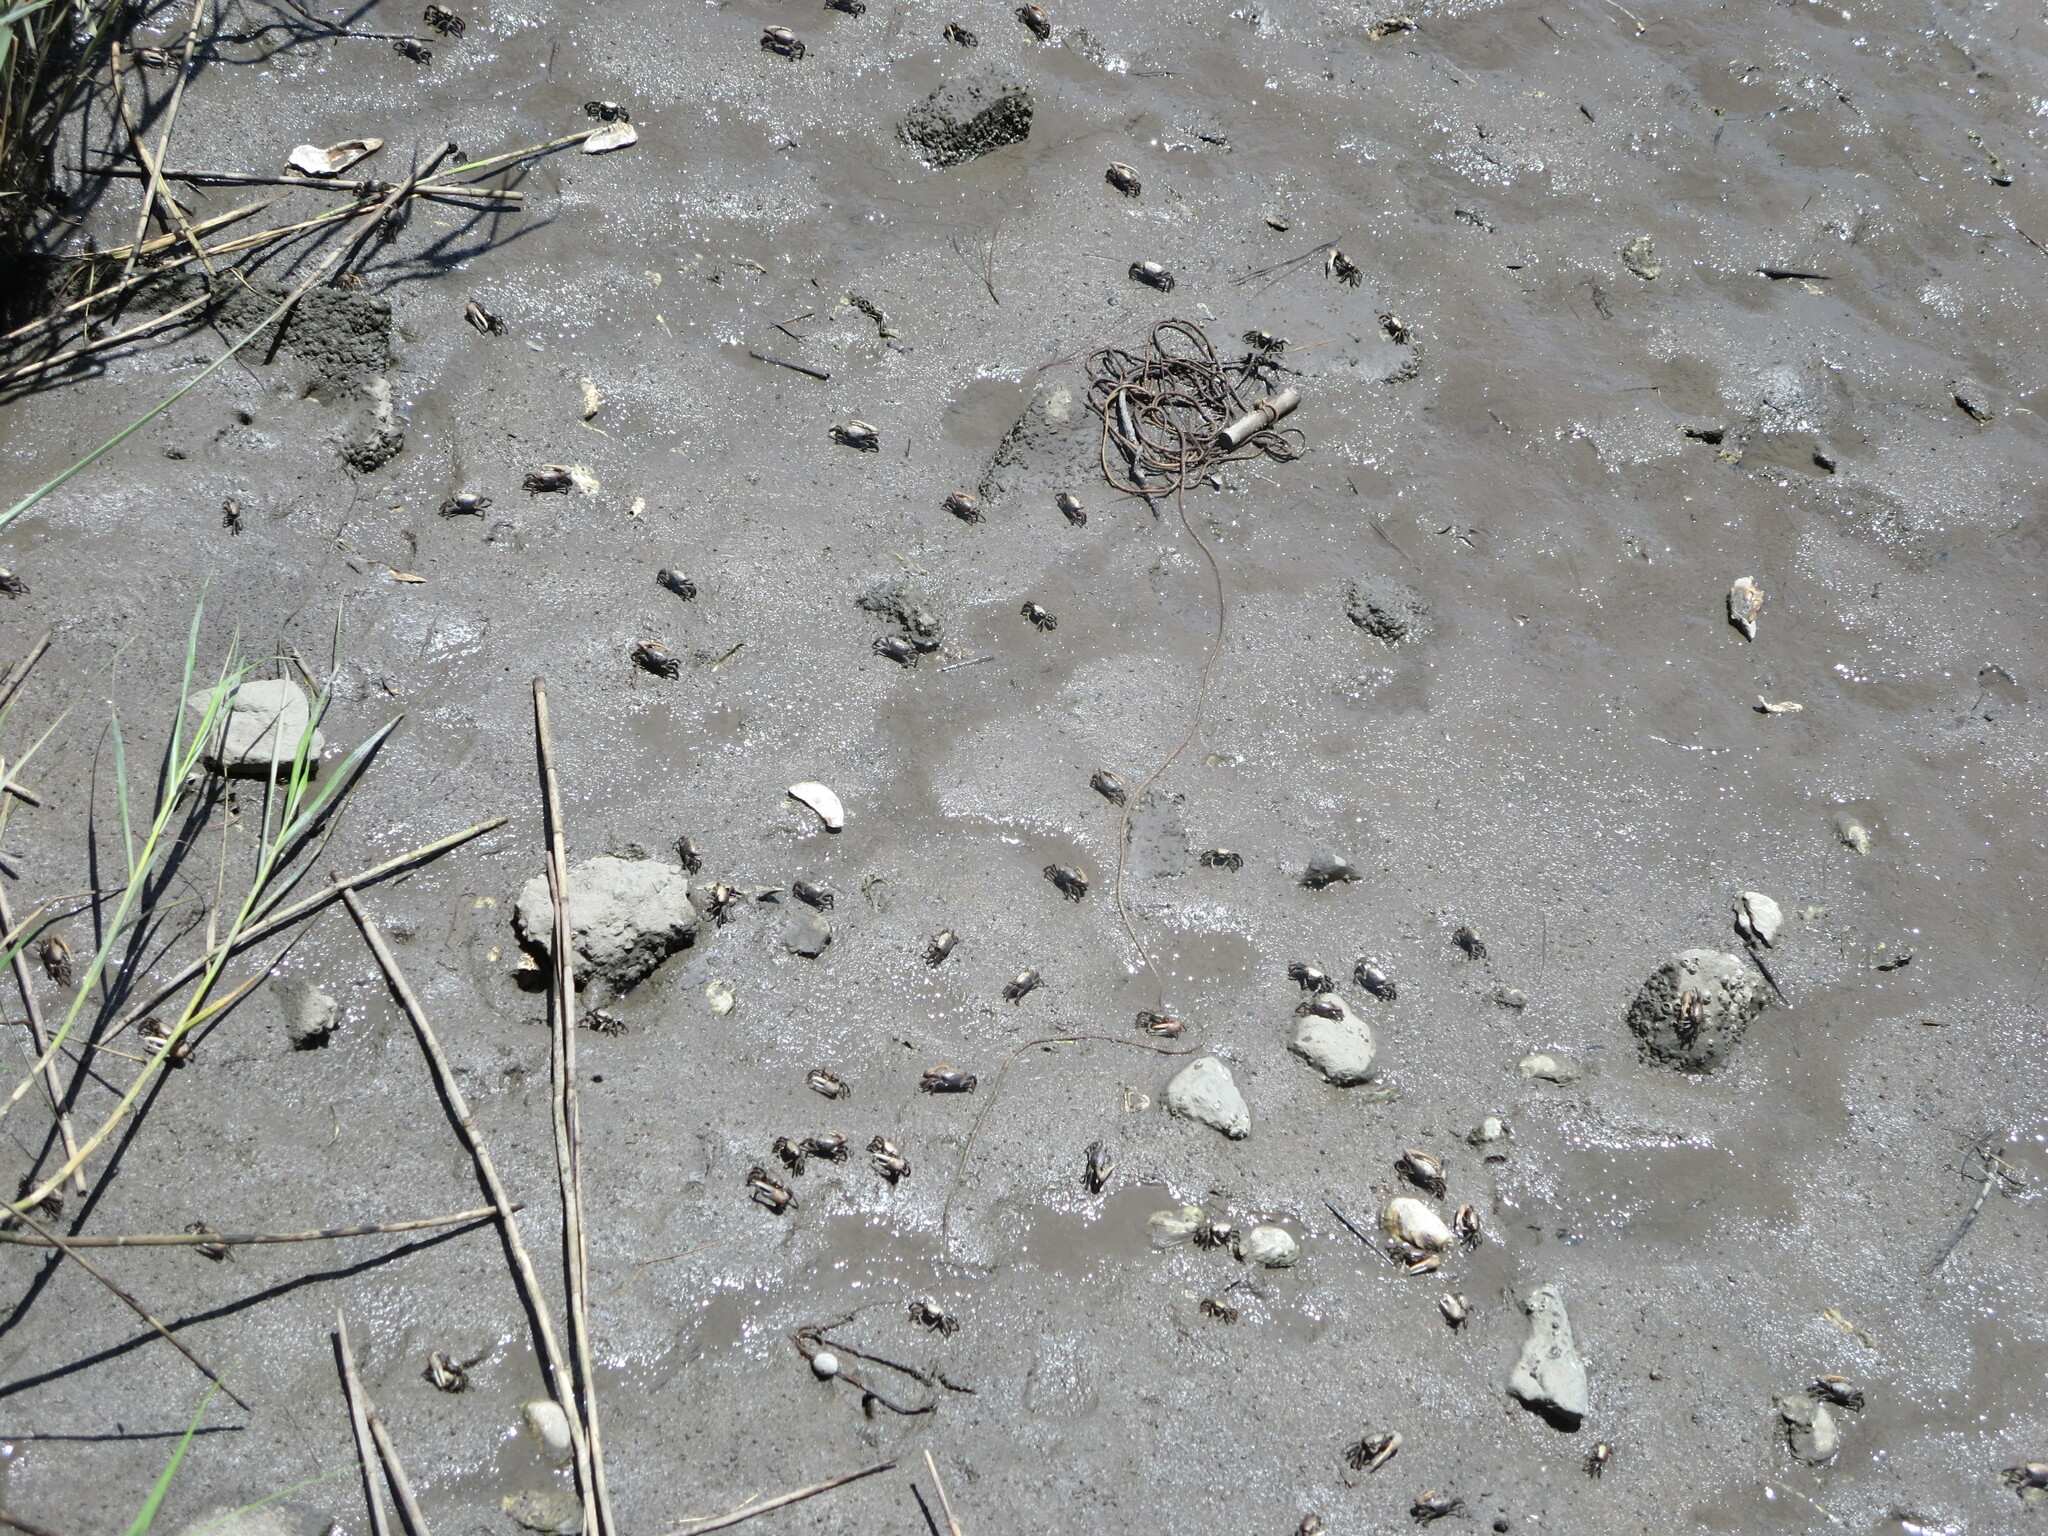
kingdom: Animalia
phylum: Arthropoda
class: Malacostraca
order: Decapoda
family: Ocypodidae
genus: Minuca
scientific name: Minuca minax
